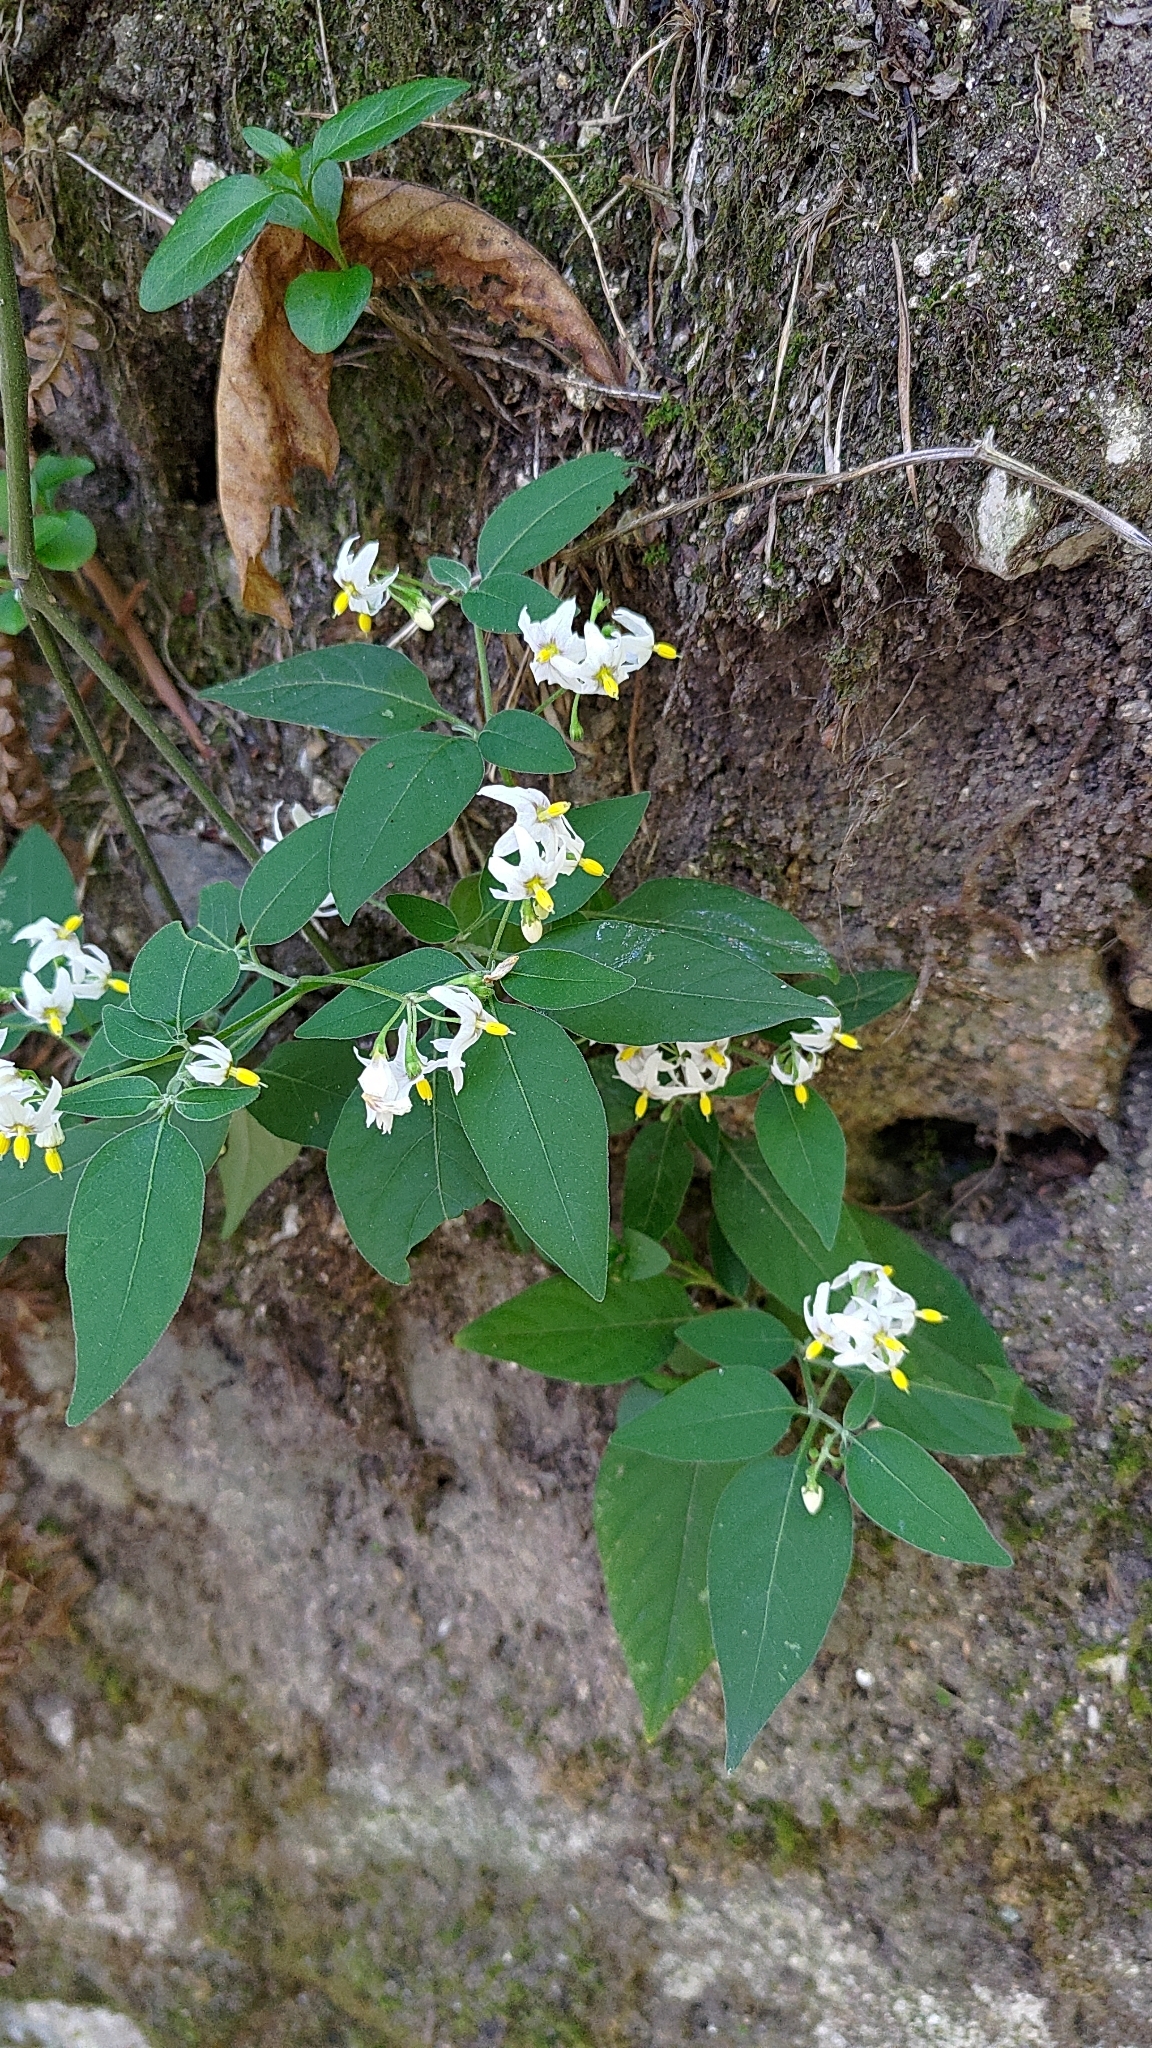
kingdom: Plantae
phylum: Tracheophyta
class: Magnoliopsida
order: Solanales
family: Solanaceae
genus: Solanum
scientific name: Solanum chenopodioides
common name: Tall nightshade
